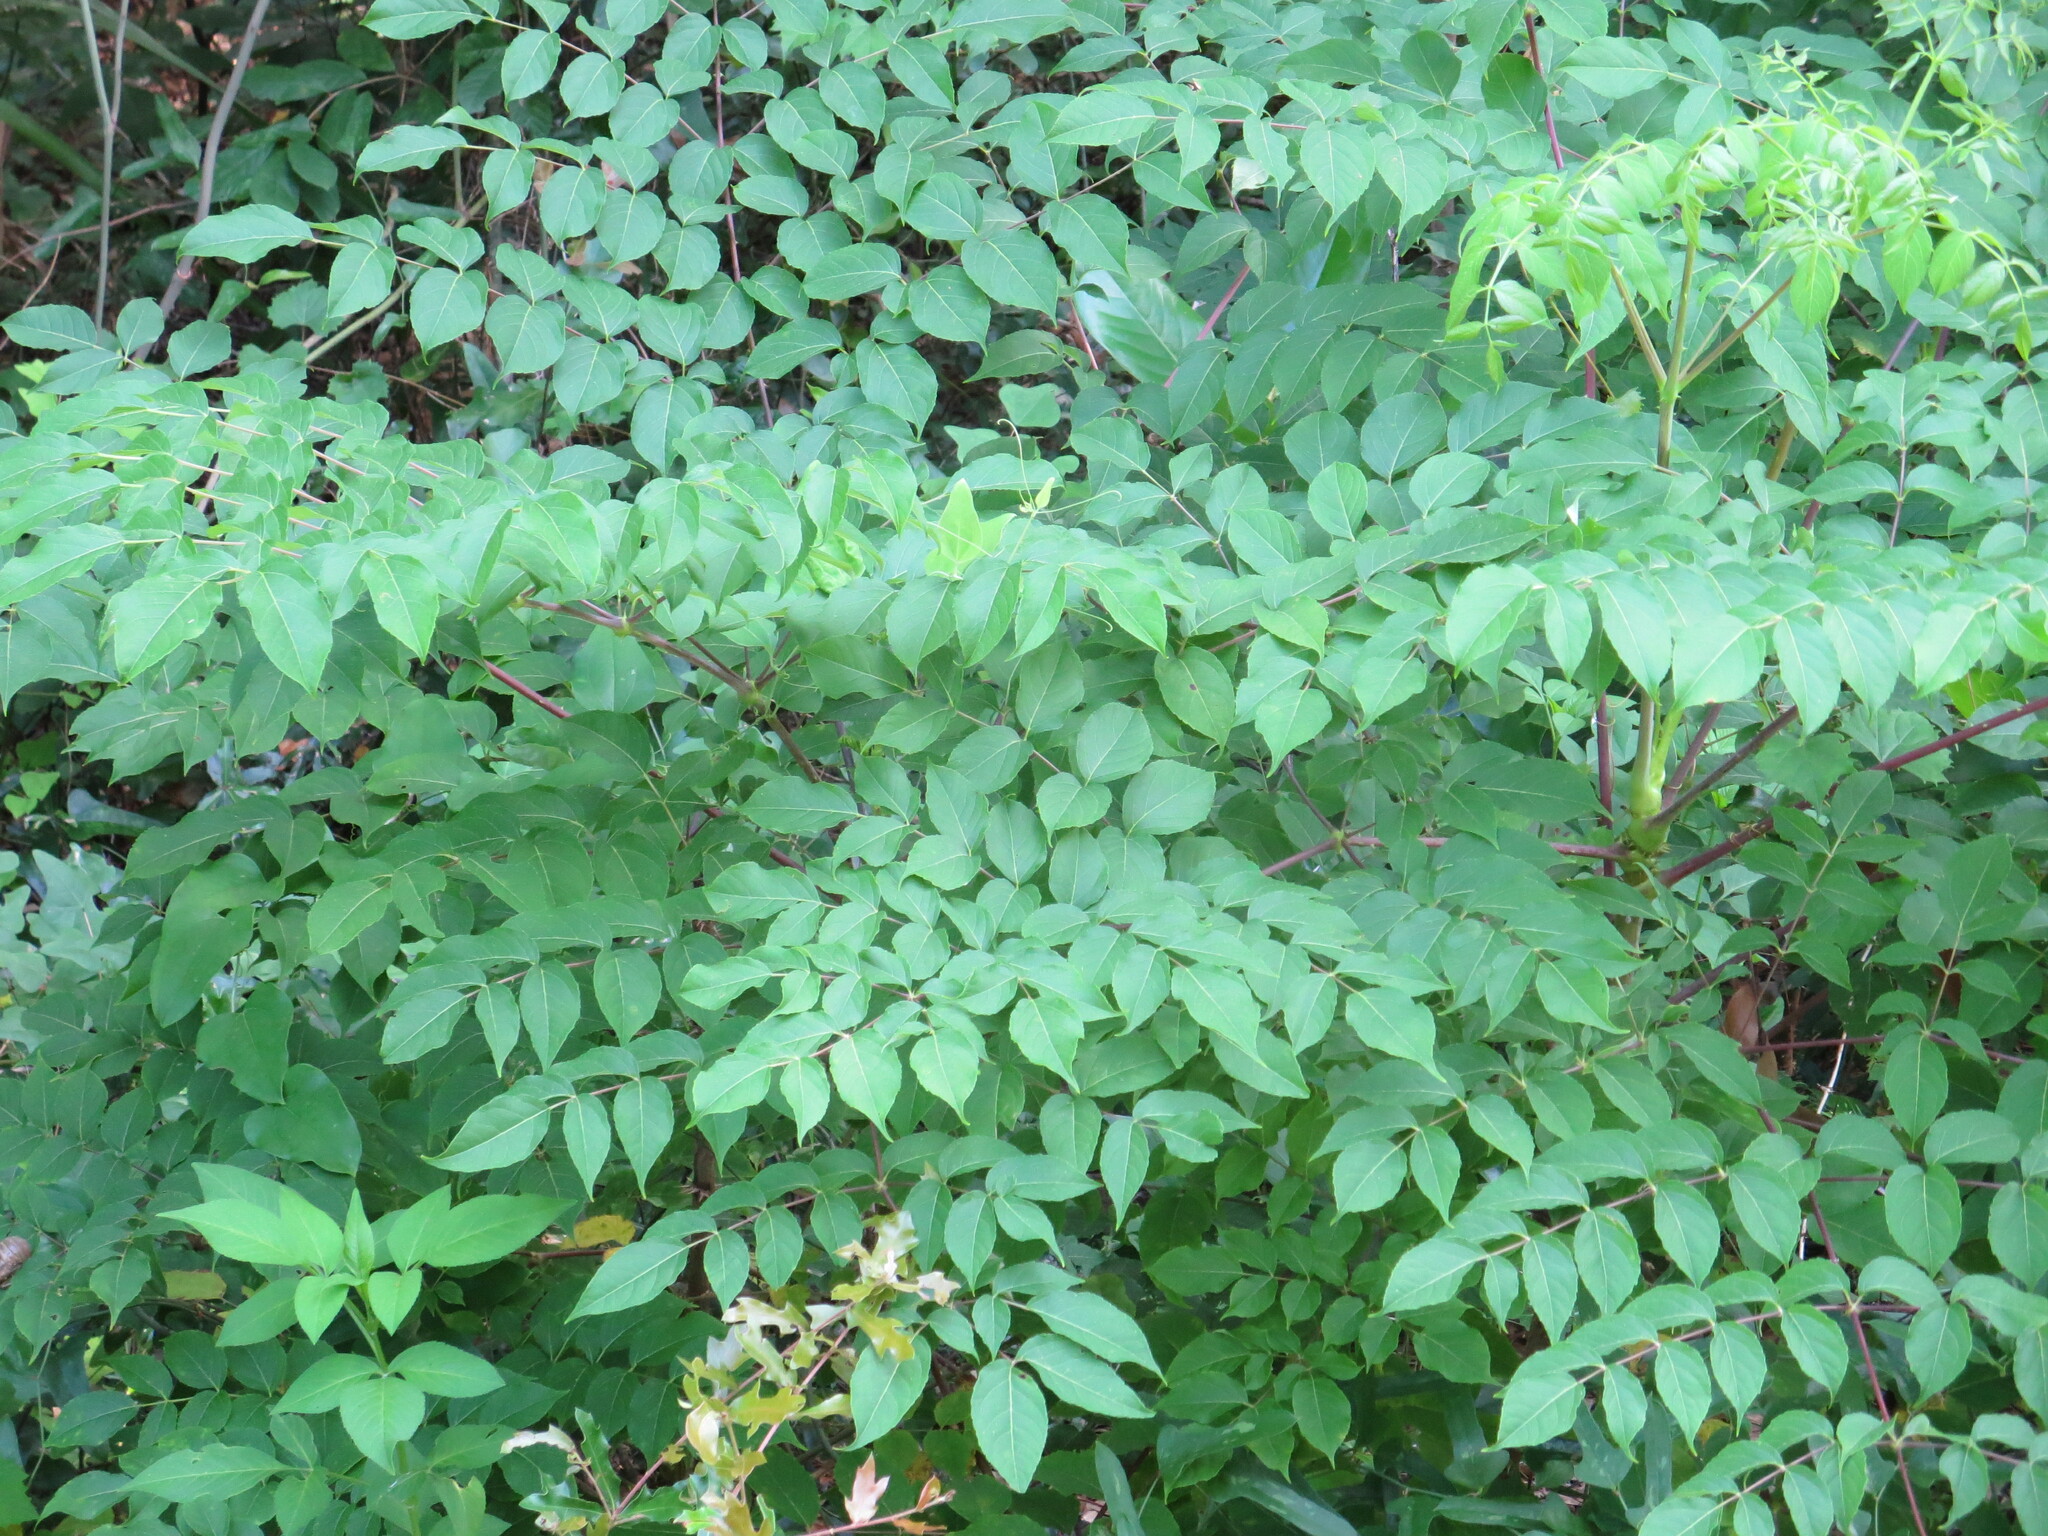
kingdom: Plantae
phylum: Tracheophyta
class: Magnoliopsida
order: Apiales
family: Araliaceae
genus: Aralia
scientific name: Aralia spinosa
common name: Hercules'-club
